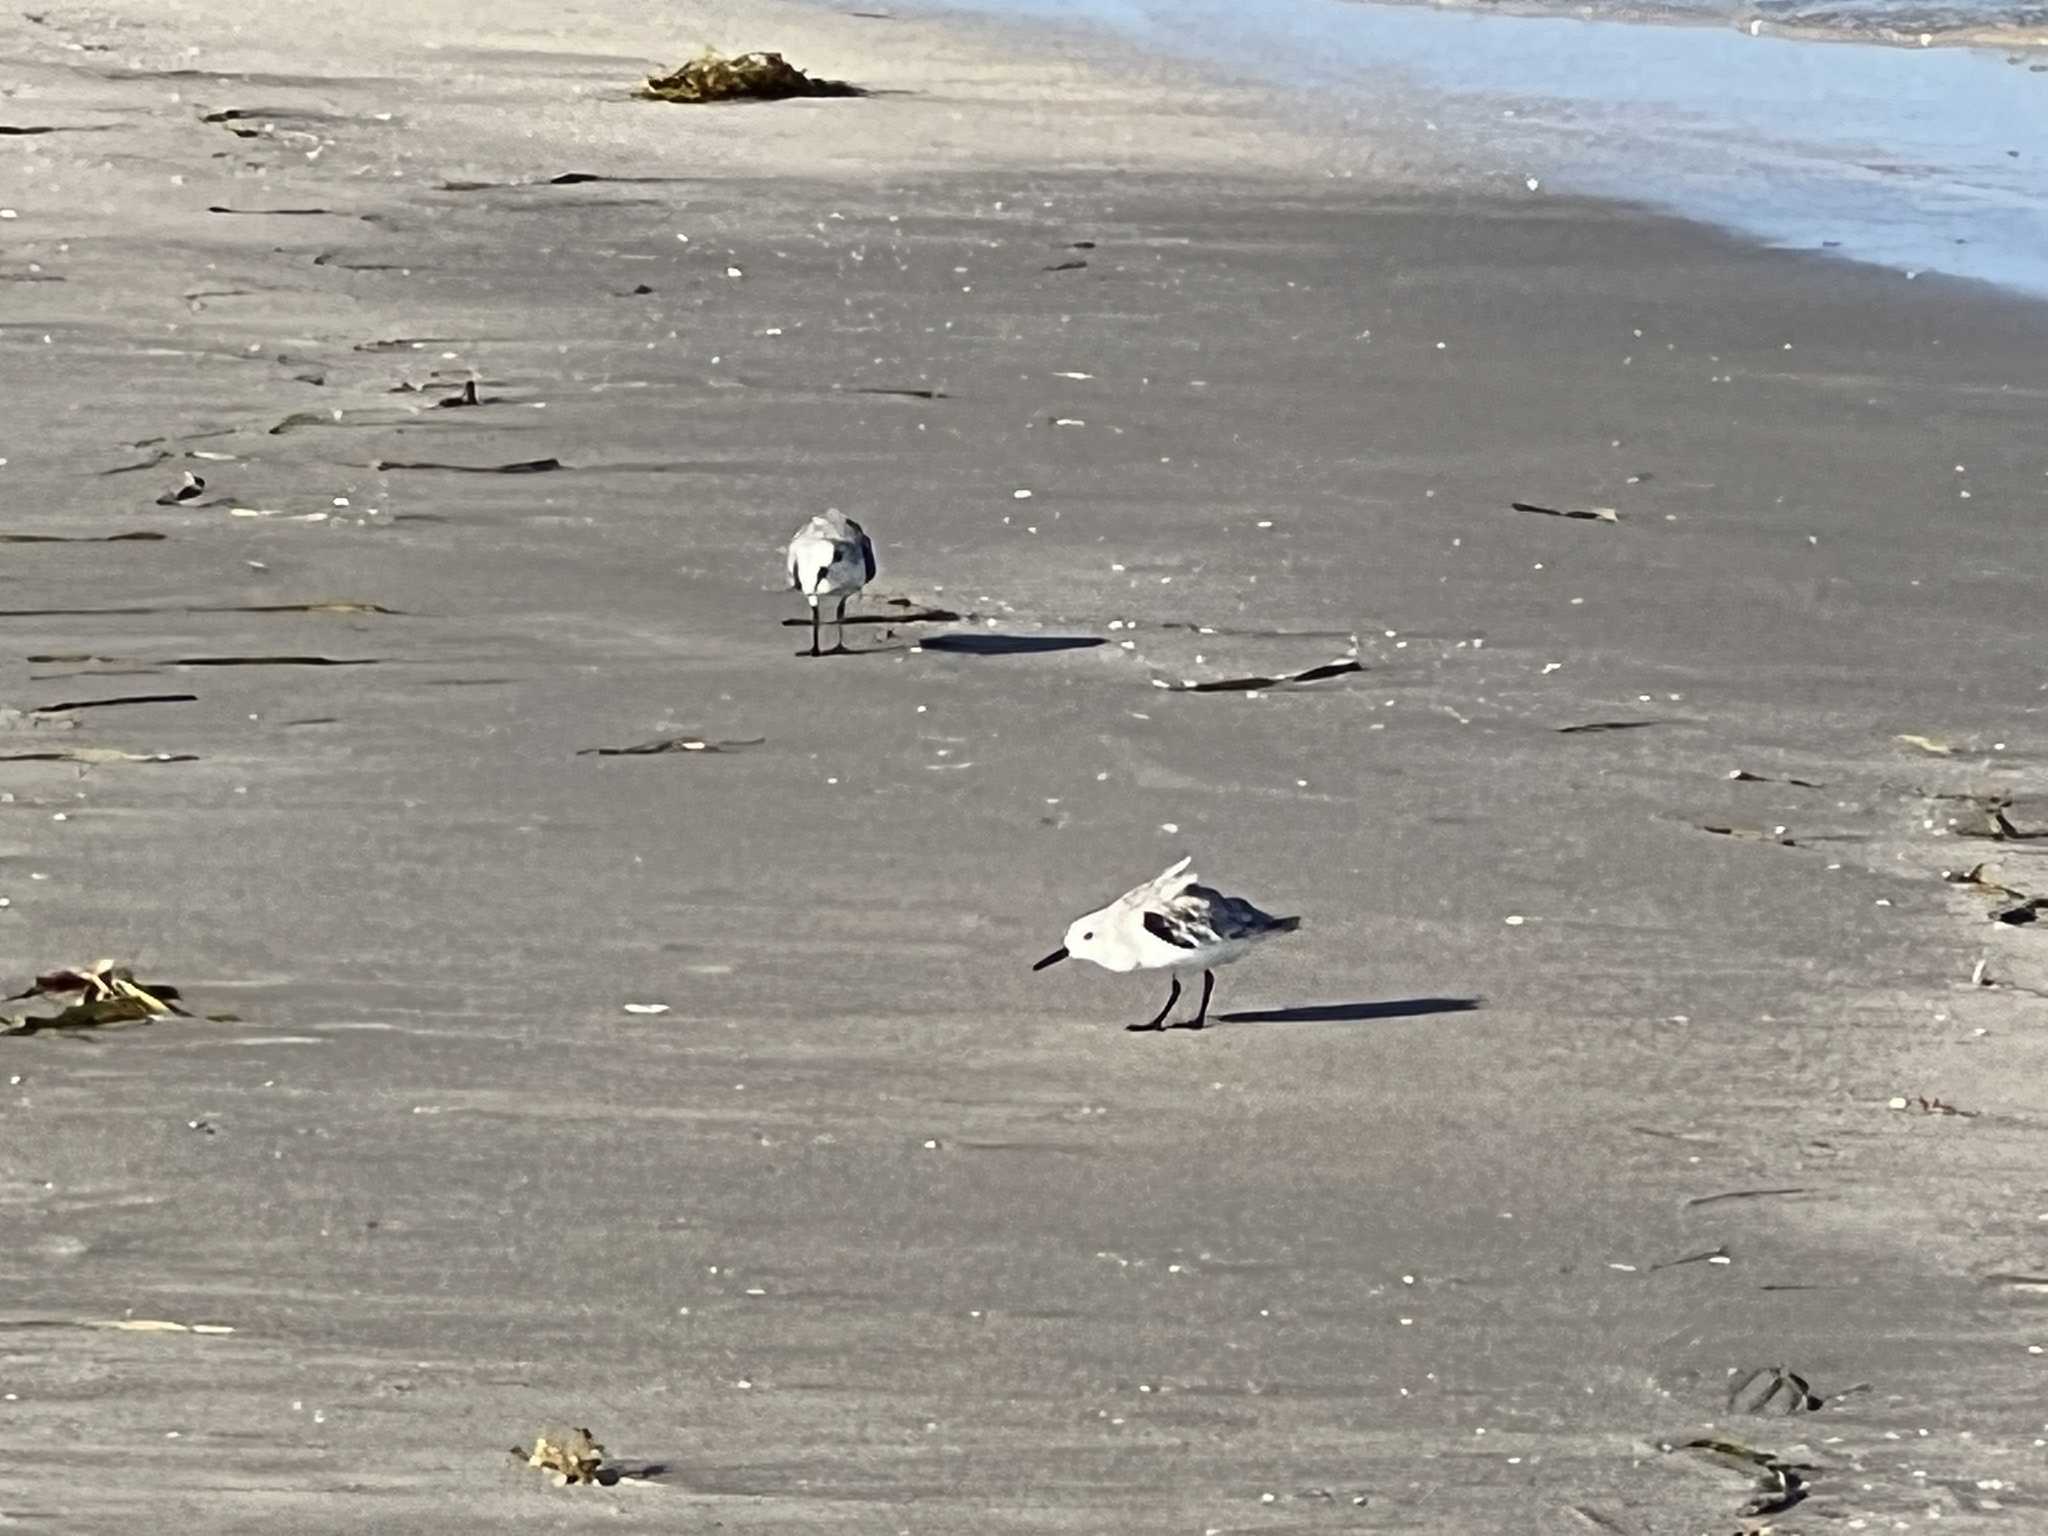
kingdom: Animalia
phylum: Chordata
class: Aves
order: Charadriiformes
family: Scolopacidae
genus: Calidris
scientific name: Calidris alba
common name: Sanderling
